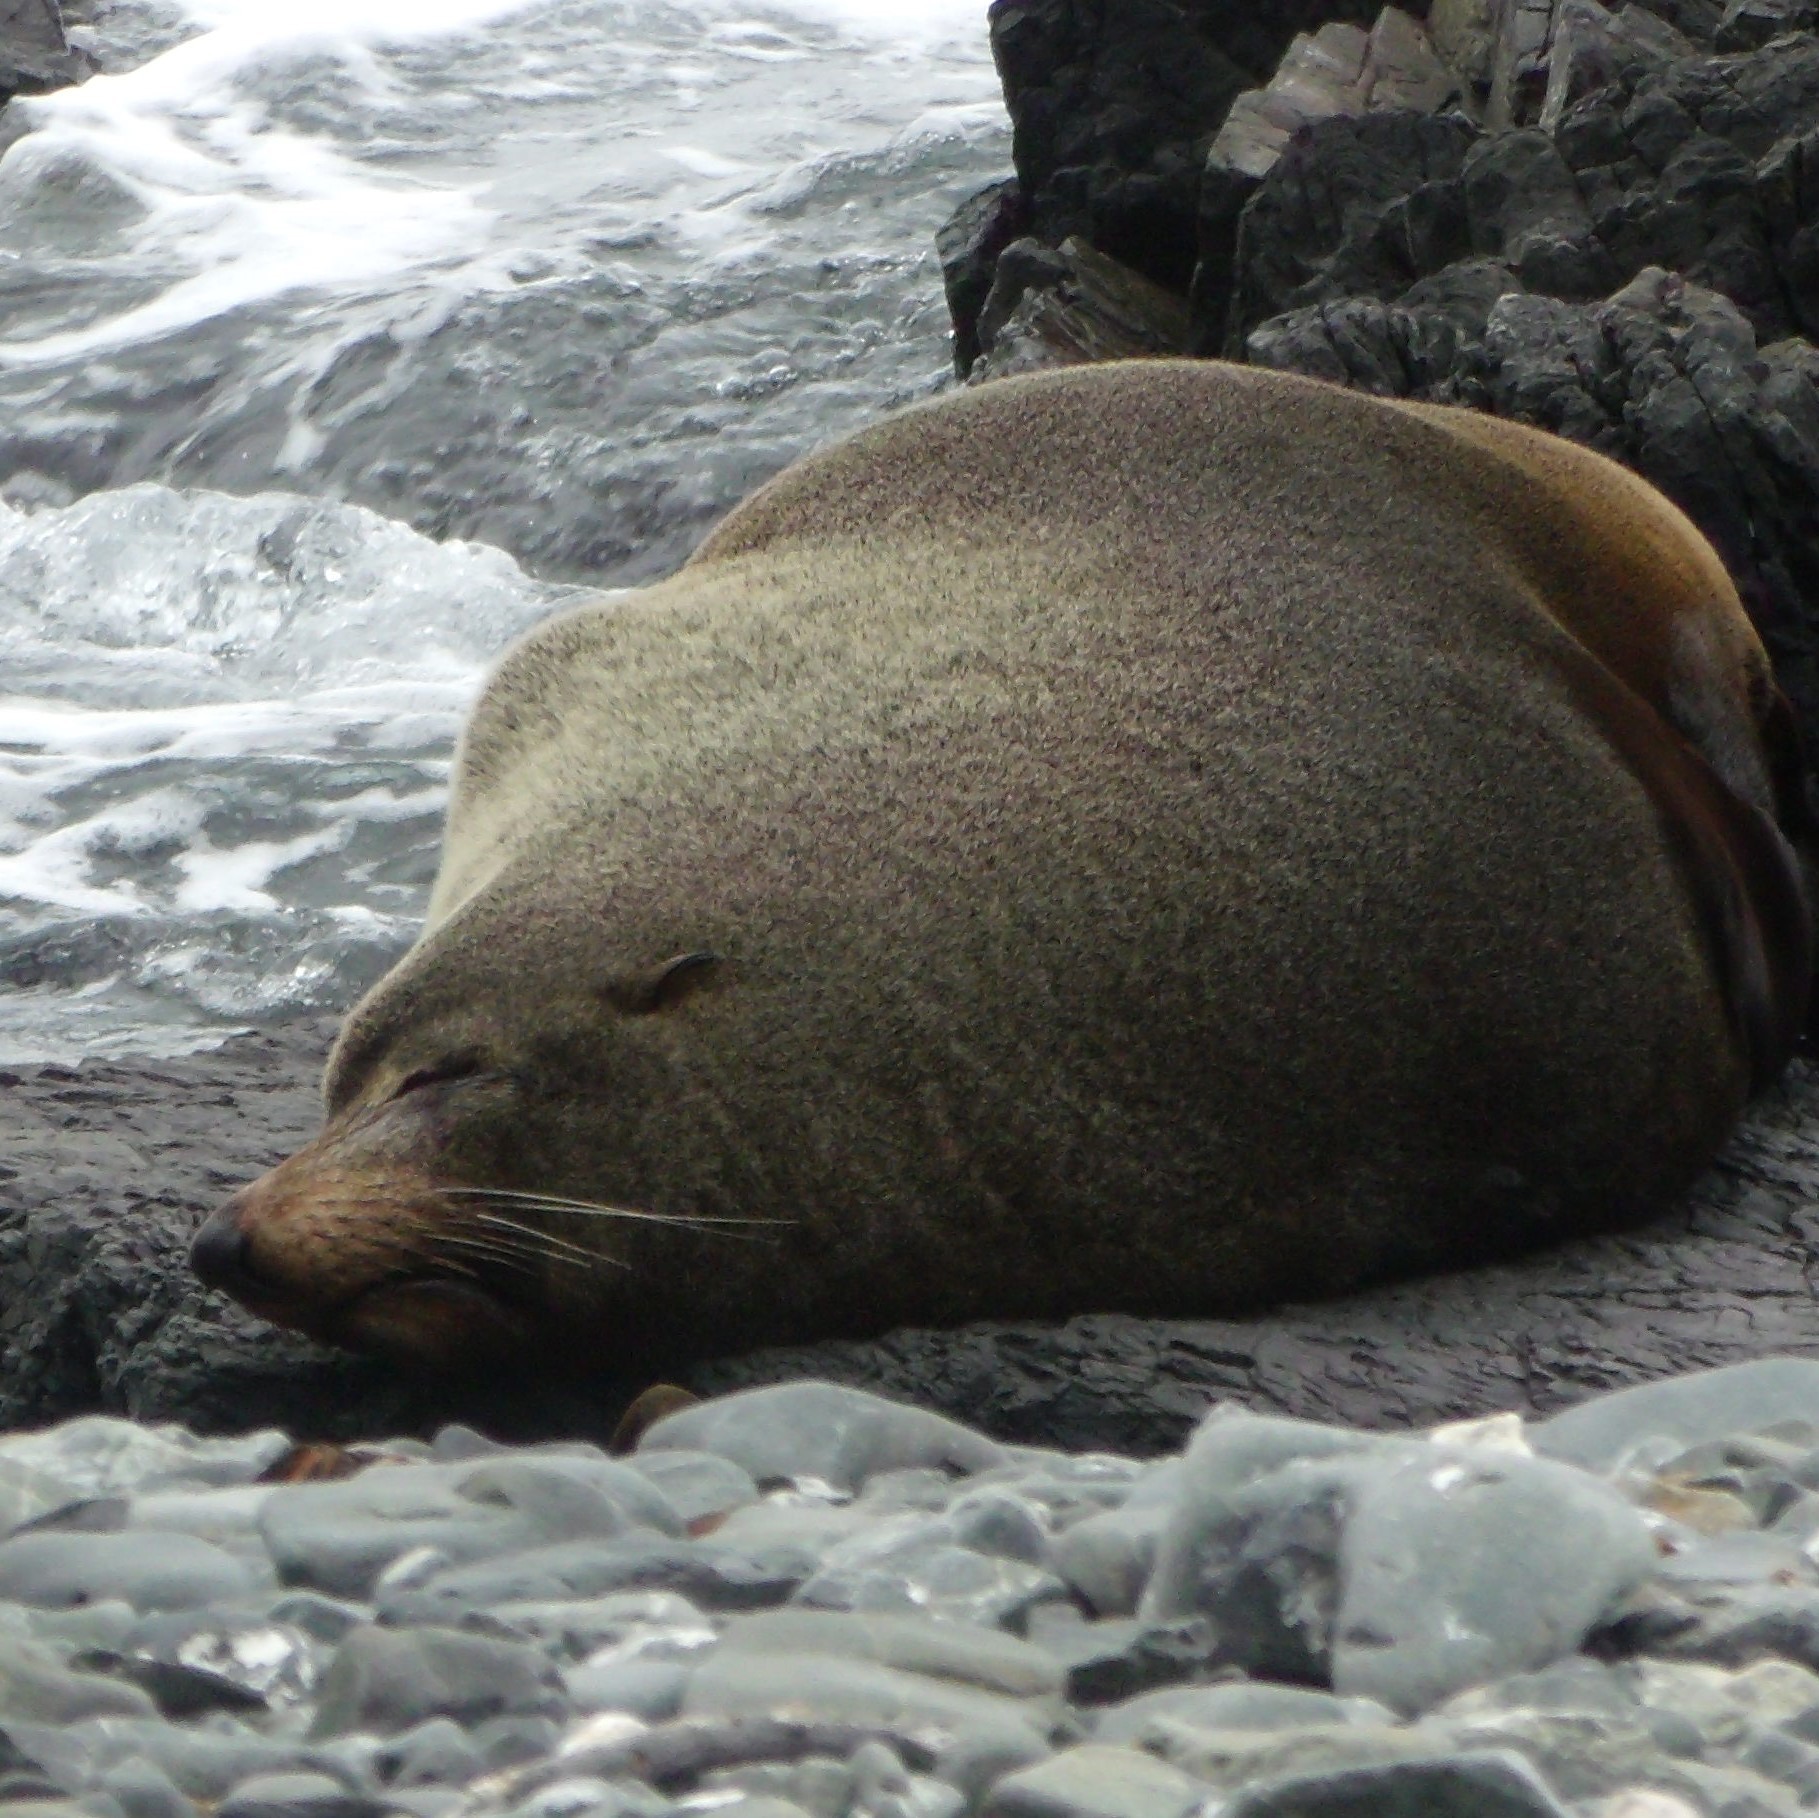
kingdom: Animalia
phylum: Chordata
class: Mammalia
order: Carnivora
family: Otariidae
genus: Arctocephalus
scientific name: Arctocephalus forsteri
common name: New zealand fur seal
